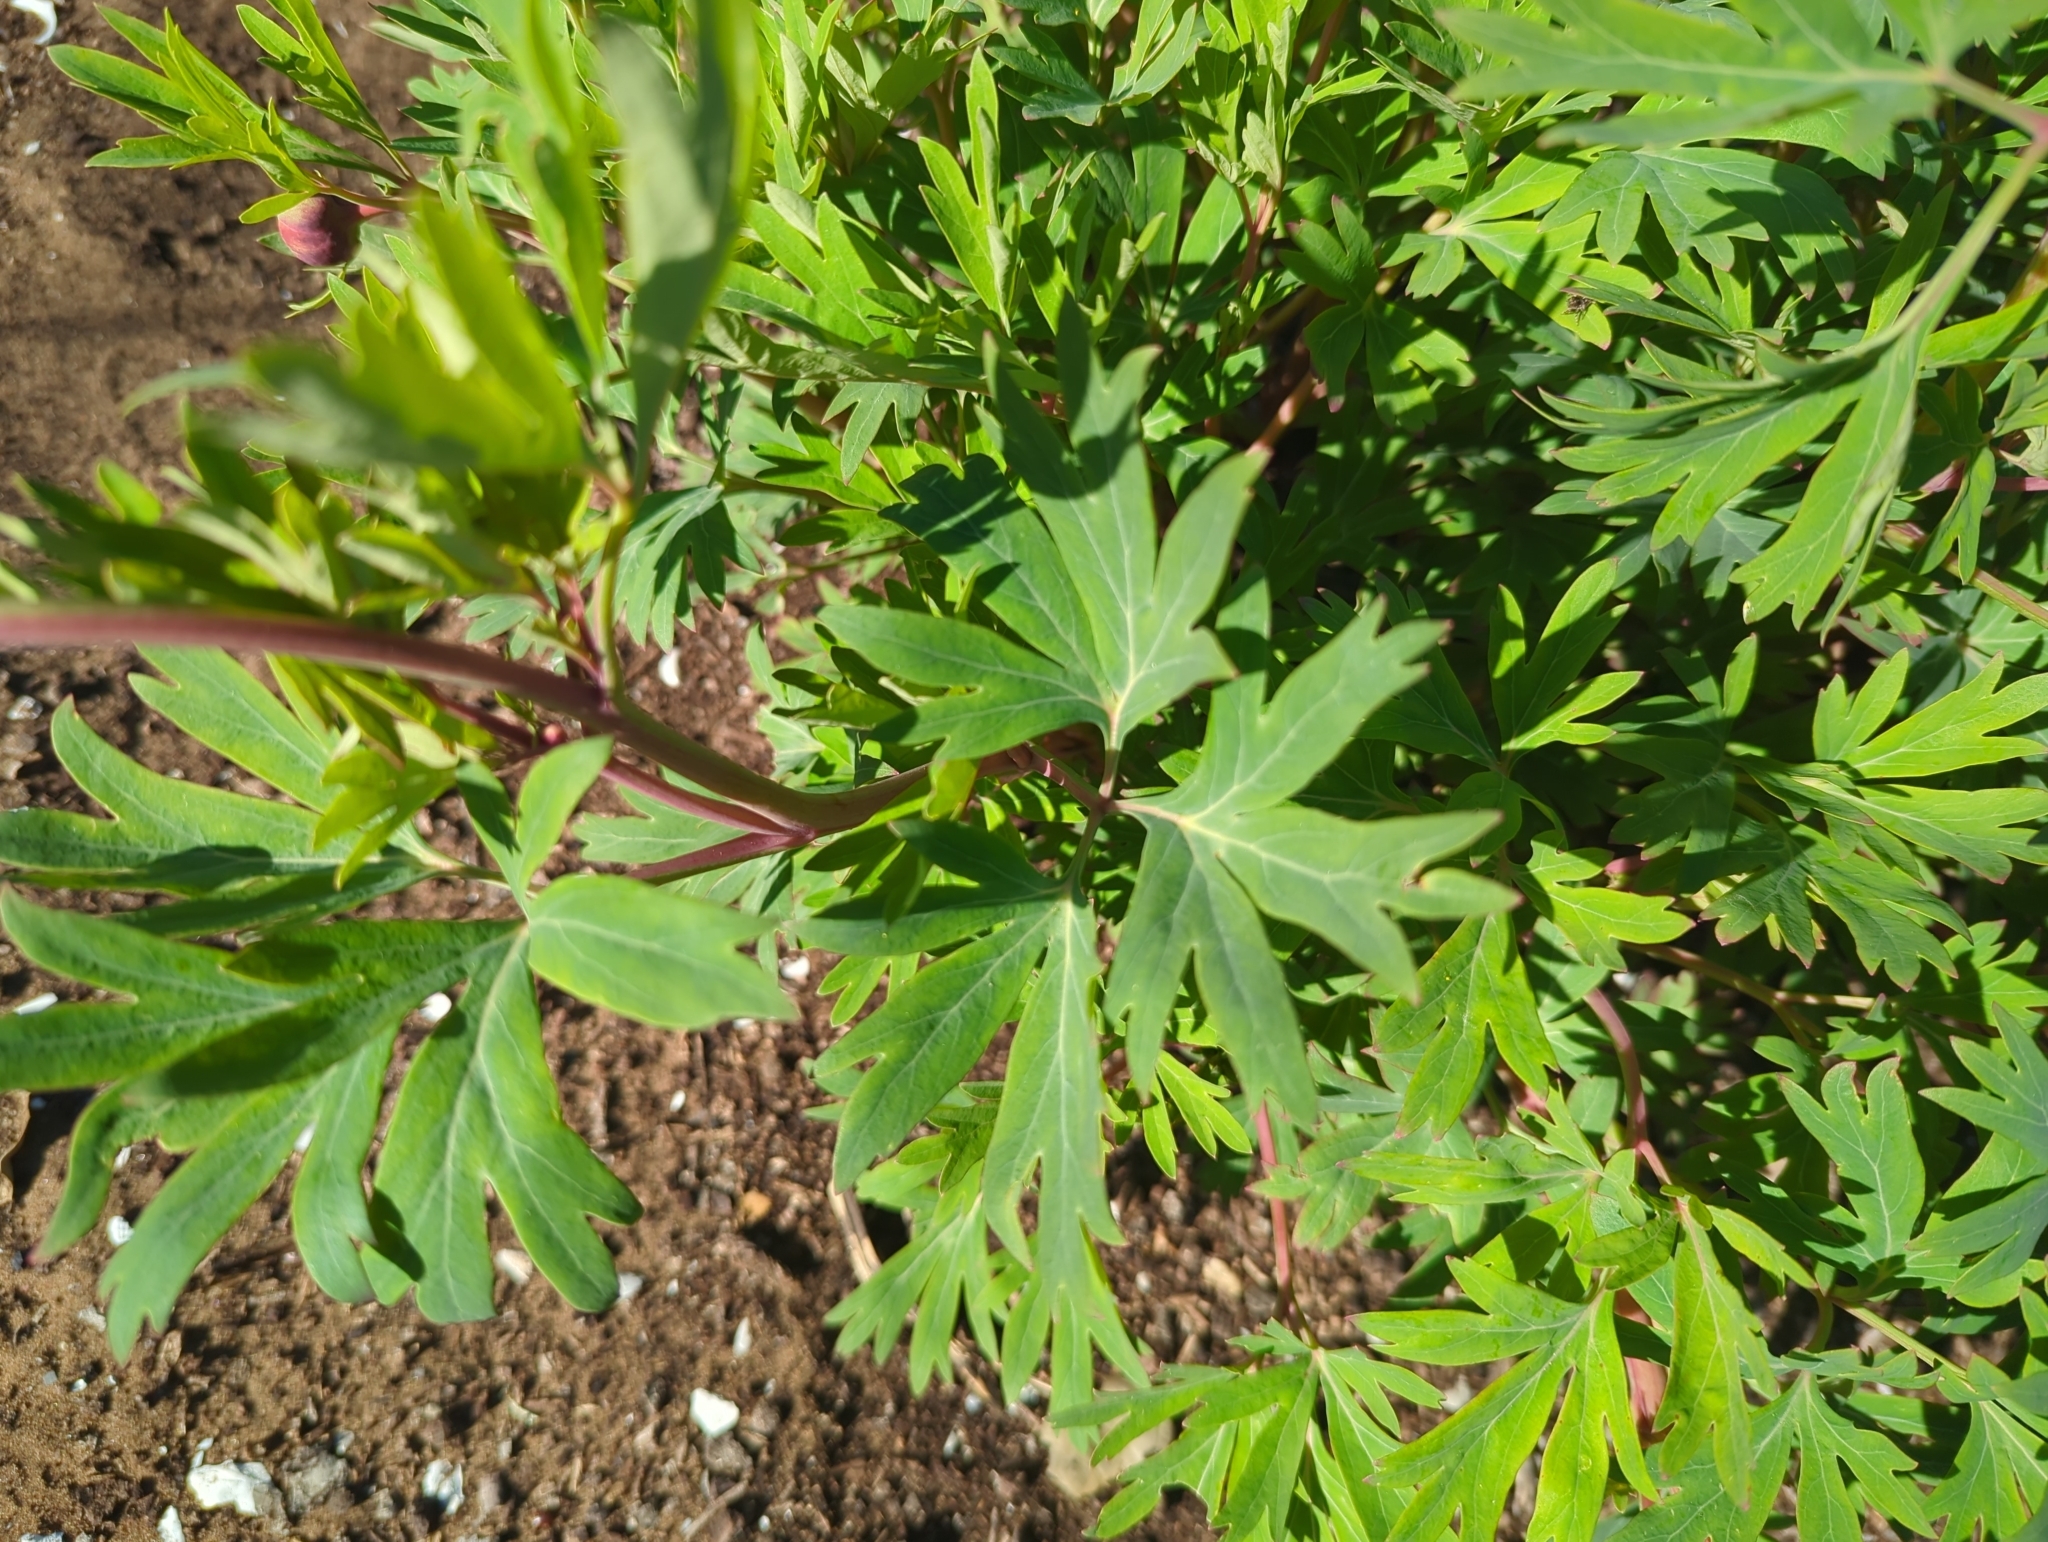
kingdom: Plantae
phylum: Tracheophyta
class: Magnoliopsida
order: Saxifragales
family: Paeoniaceae
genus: Paeonia
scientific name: Paeonia californica
